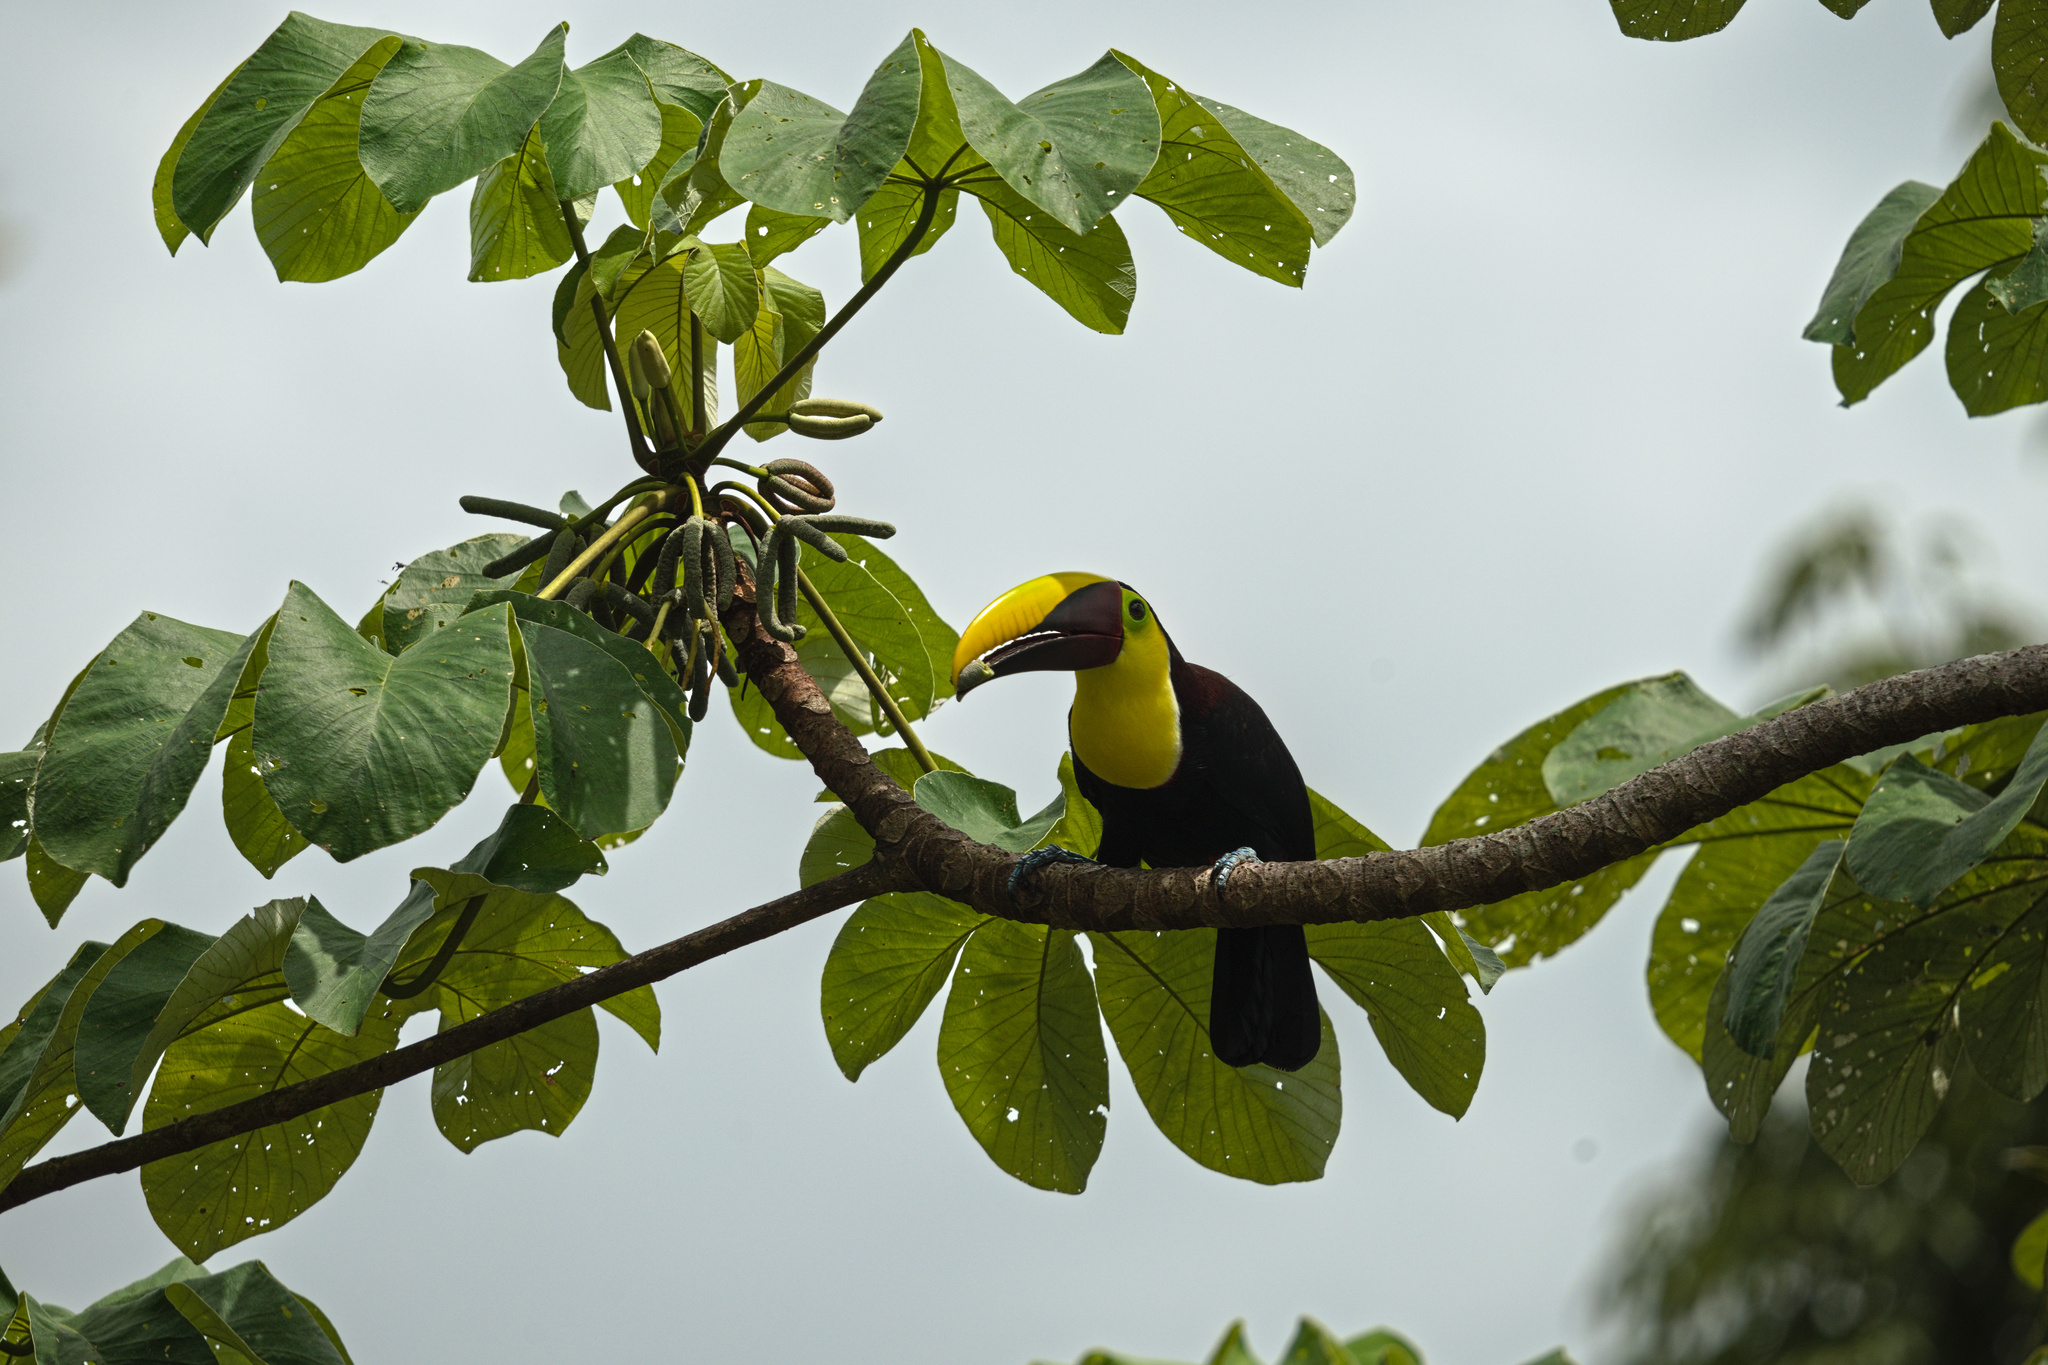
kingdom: Animalia
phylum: Chordata
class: Aves
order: Piciformes
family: Ramphastidae
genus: Ramphastos
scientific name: Ramphastos ambiguus
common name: Yellow-throated toucan
